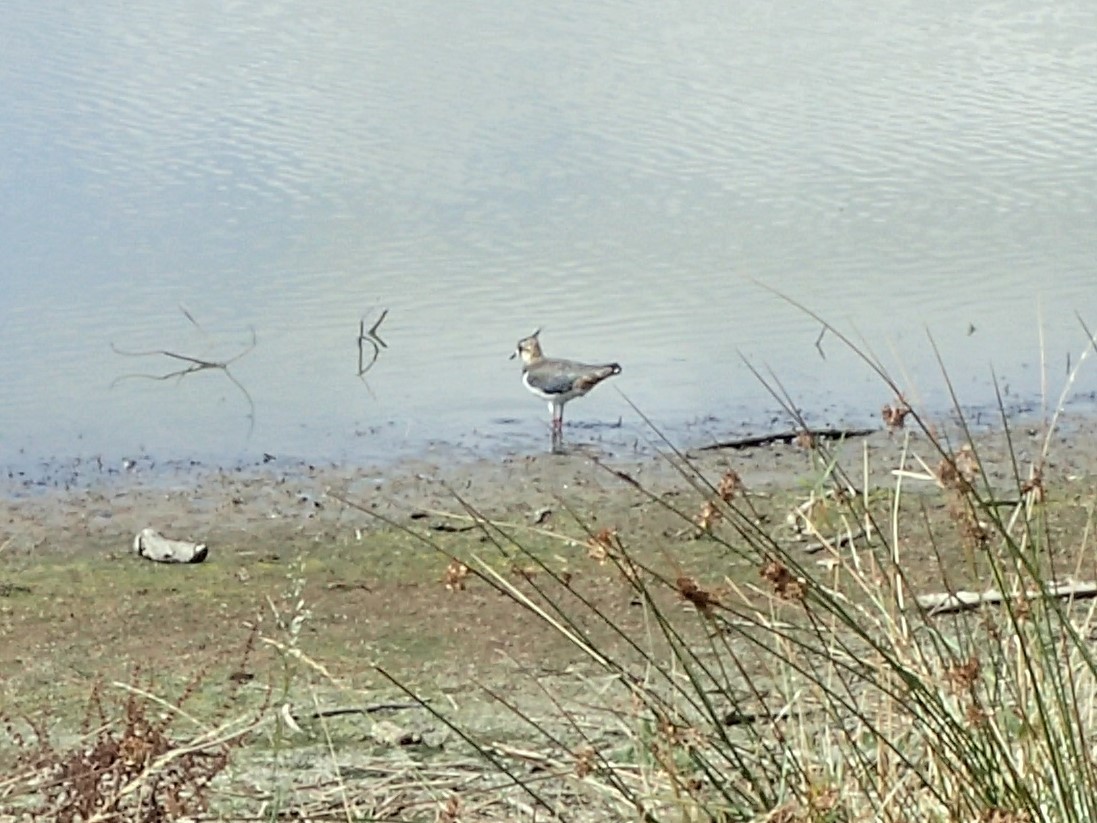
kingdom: Animalia
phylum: Chordata
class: Aves
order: Charadriiformes
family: Charadriidae
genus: Vanellus
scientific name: Vanellus vanellus
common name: Northern lapwing
